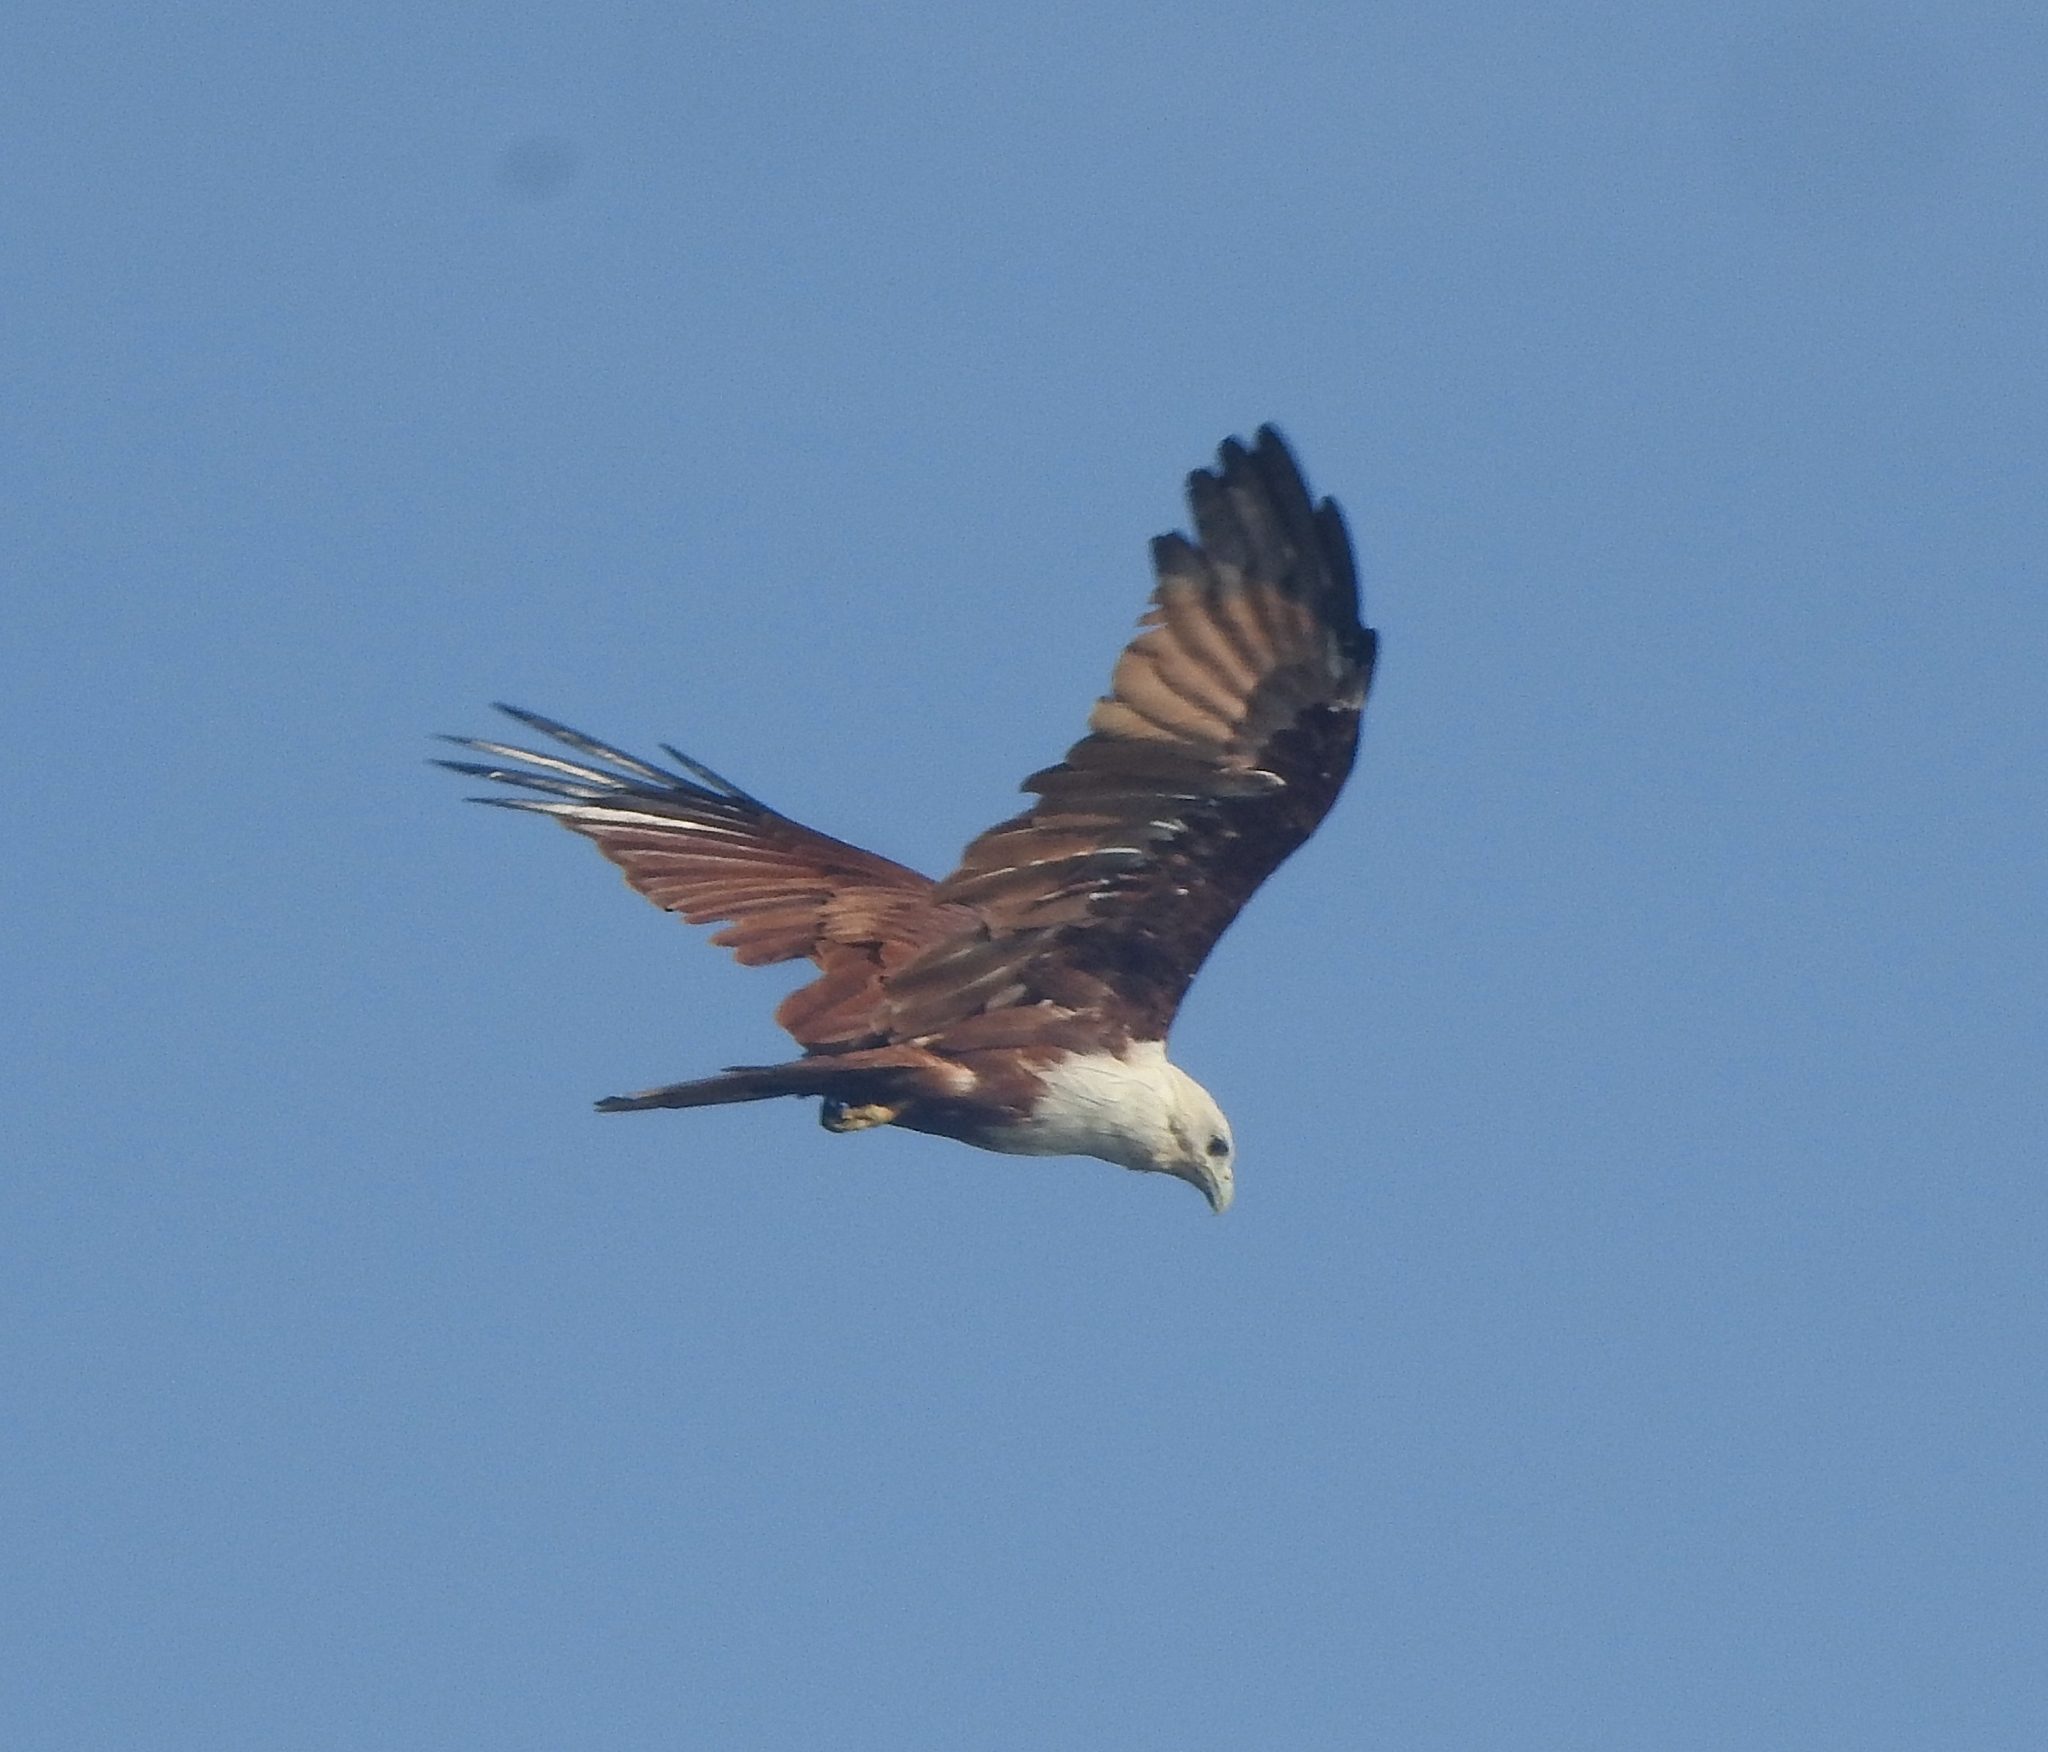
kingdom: Animalia
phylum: Chordata
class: Aves
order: Accipitriformes
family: Accipitridae
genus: Haliastur
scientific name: Haliastur indus
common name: Brahminy kite
